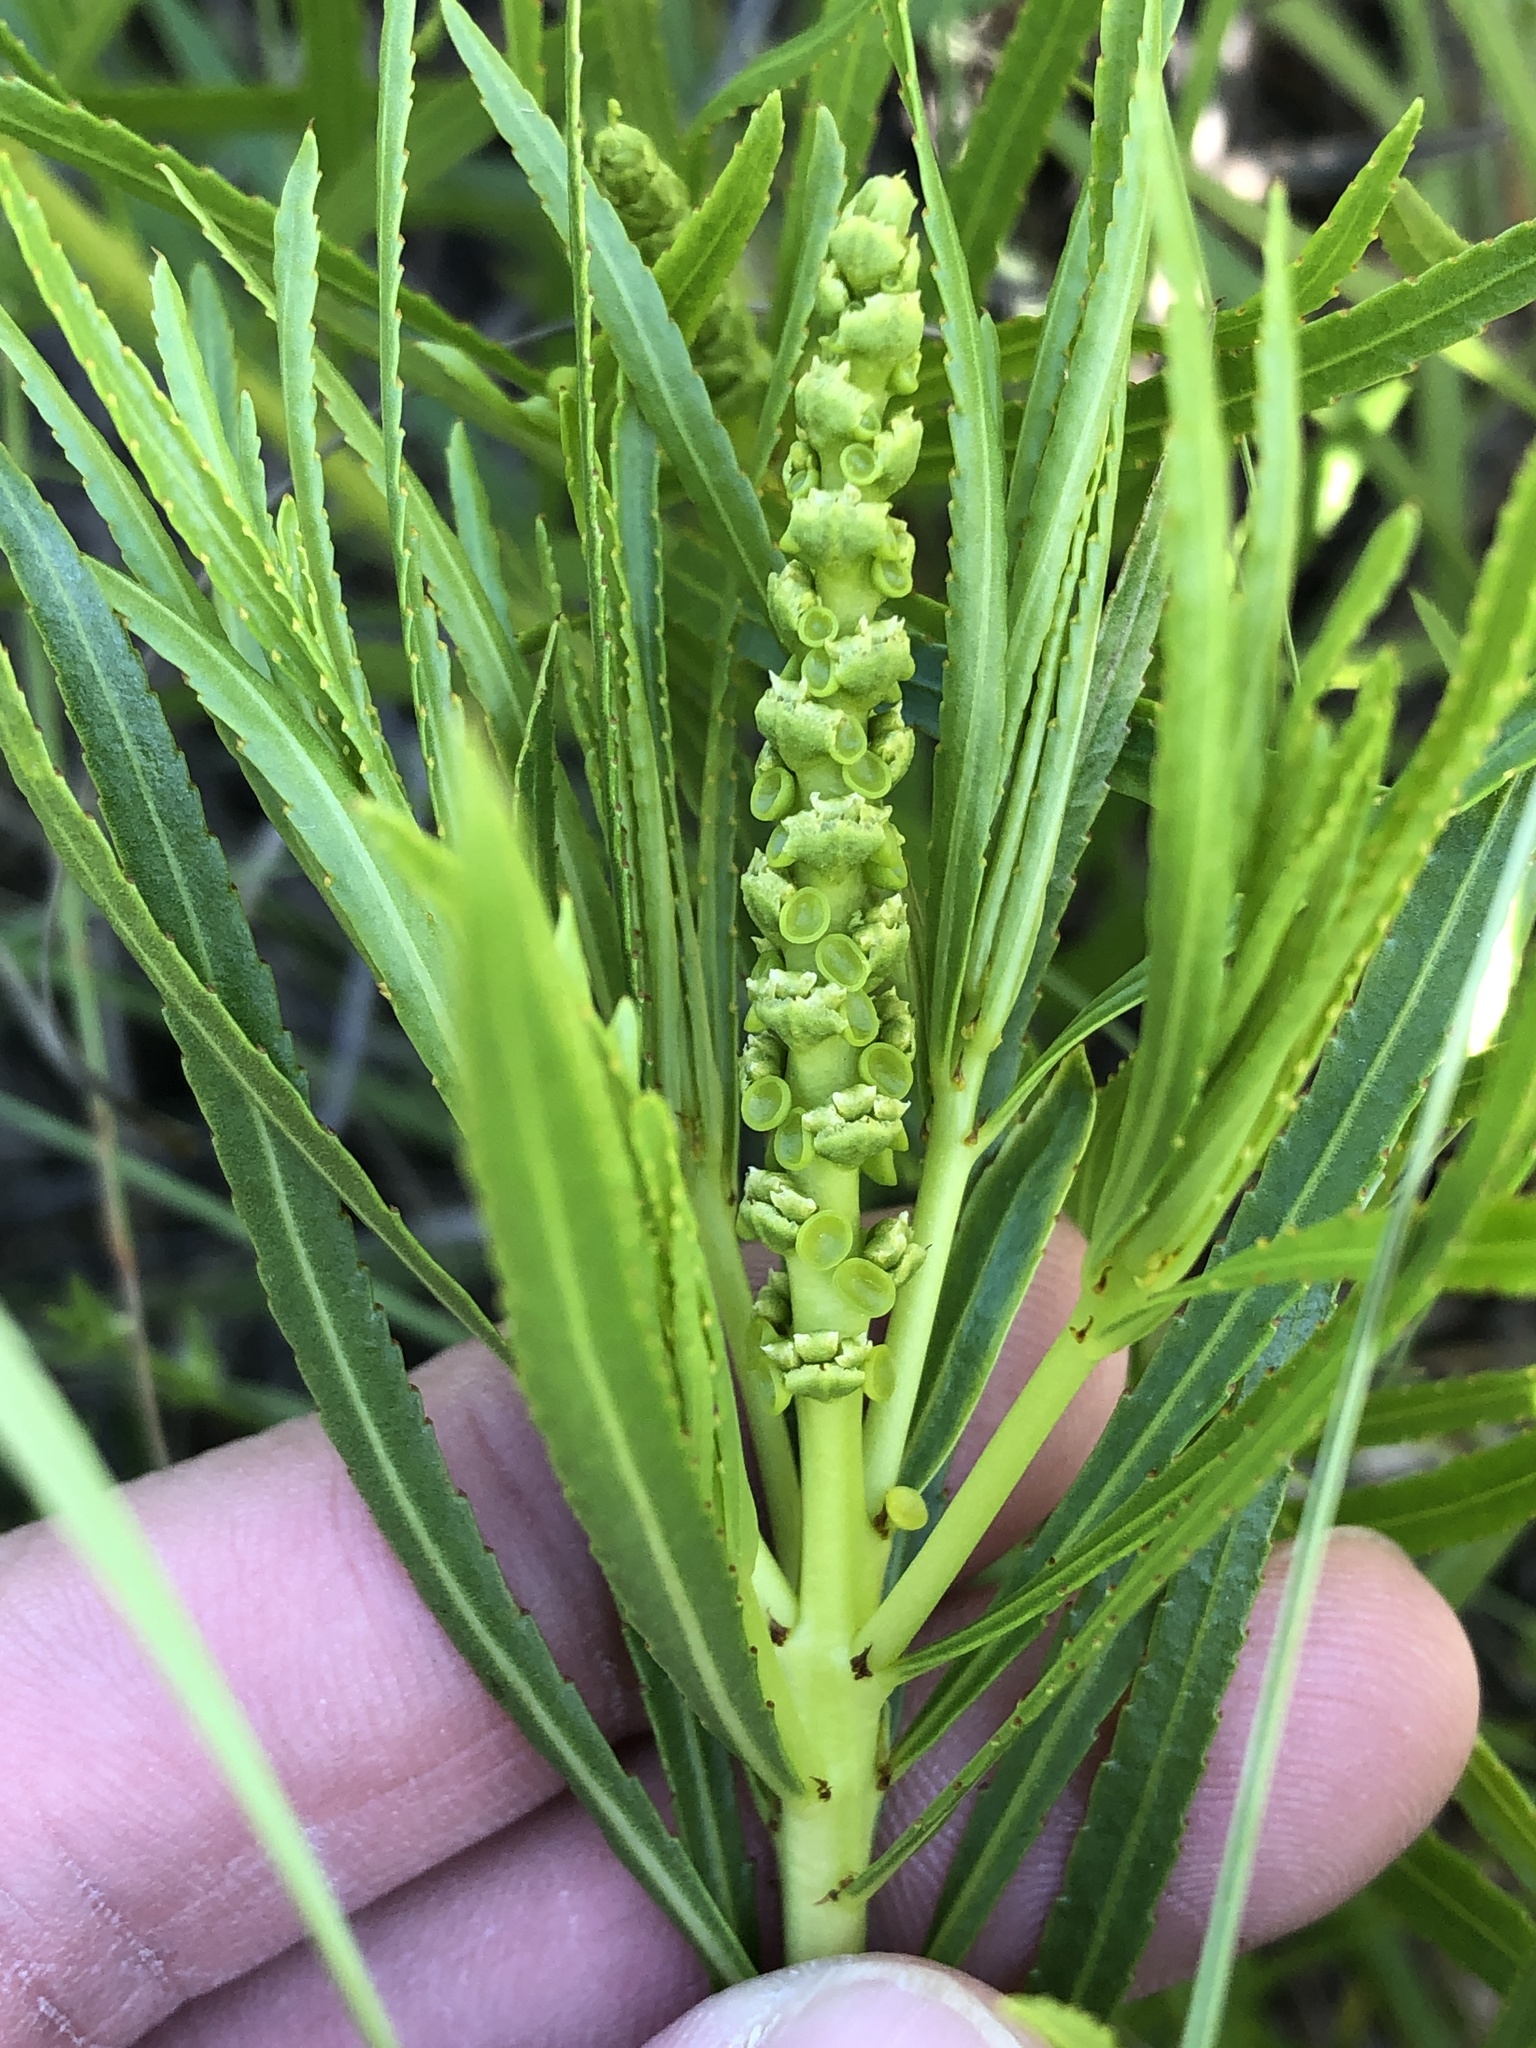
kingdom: Plantae
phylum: Tracheophyta
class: Magnoliopsida
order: Malpighiales
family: Euphorbiaceae
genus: Stillingia
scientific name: Stillingia texana
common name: Texas stillingia
